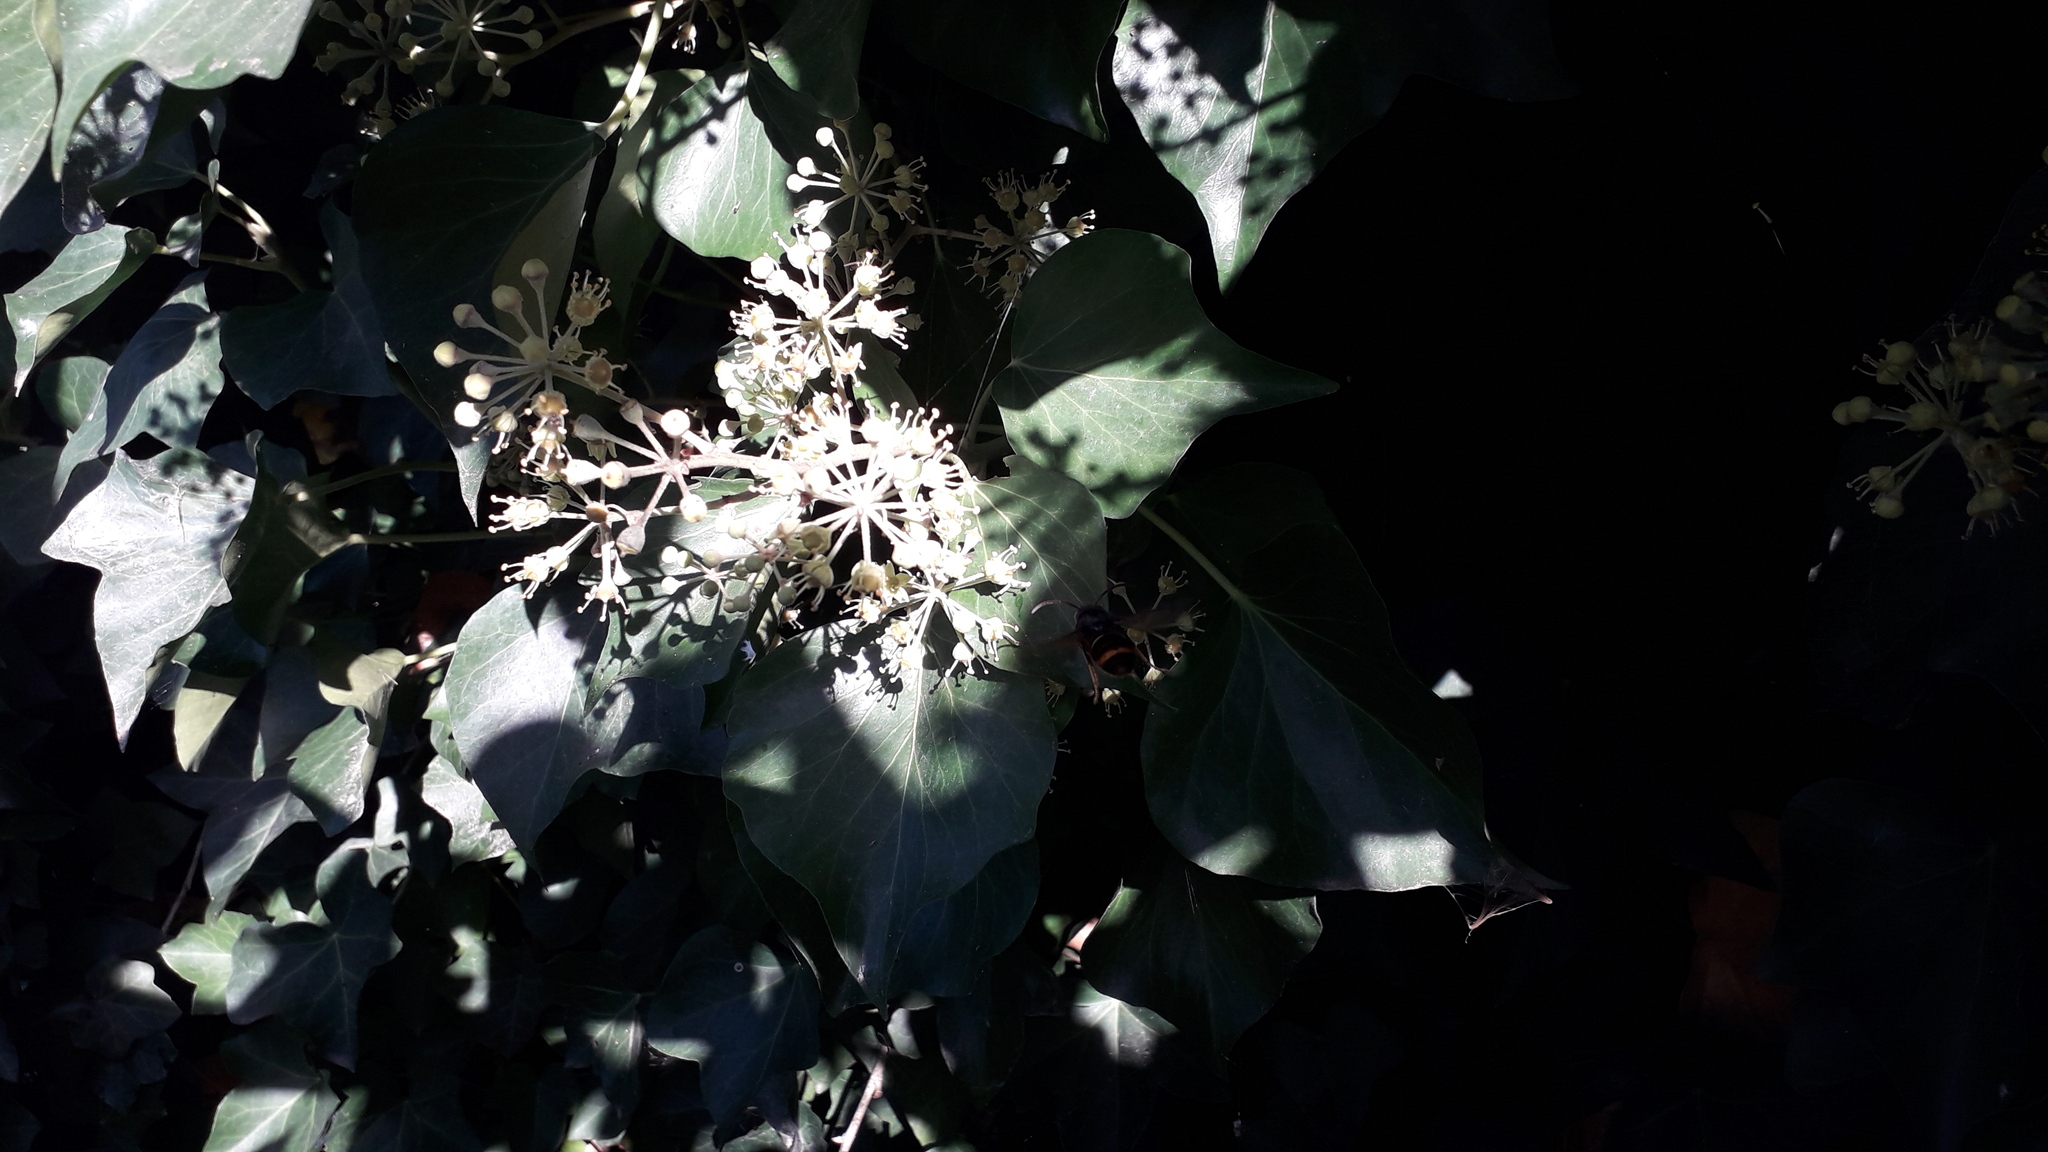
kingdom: Animalia
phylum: Arthropoda
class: Insecta
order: Hymenoptera
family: Vespidae
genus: Vespa
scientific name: Vespa velutina
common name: Asian hornet
